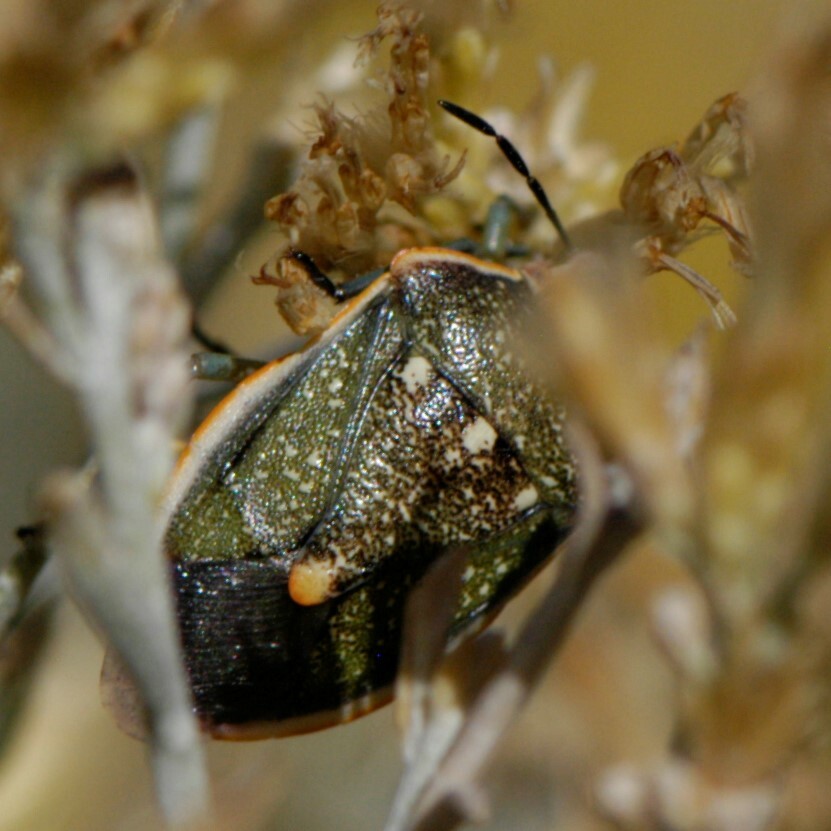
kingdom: Animalia
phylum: Arthropoda
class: Insecta
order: Hemiptera
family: Pentatomidae
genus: Chlorochroa
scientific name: Chlorochroa sayi
